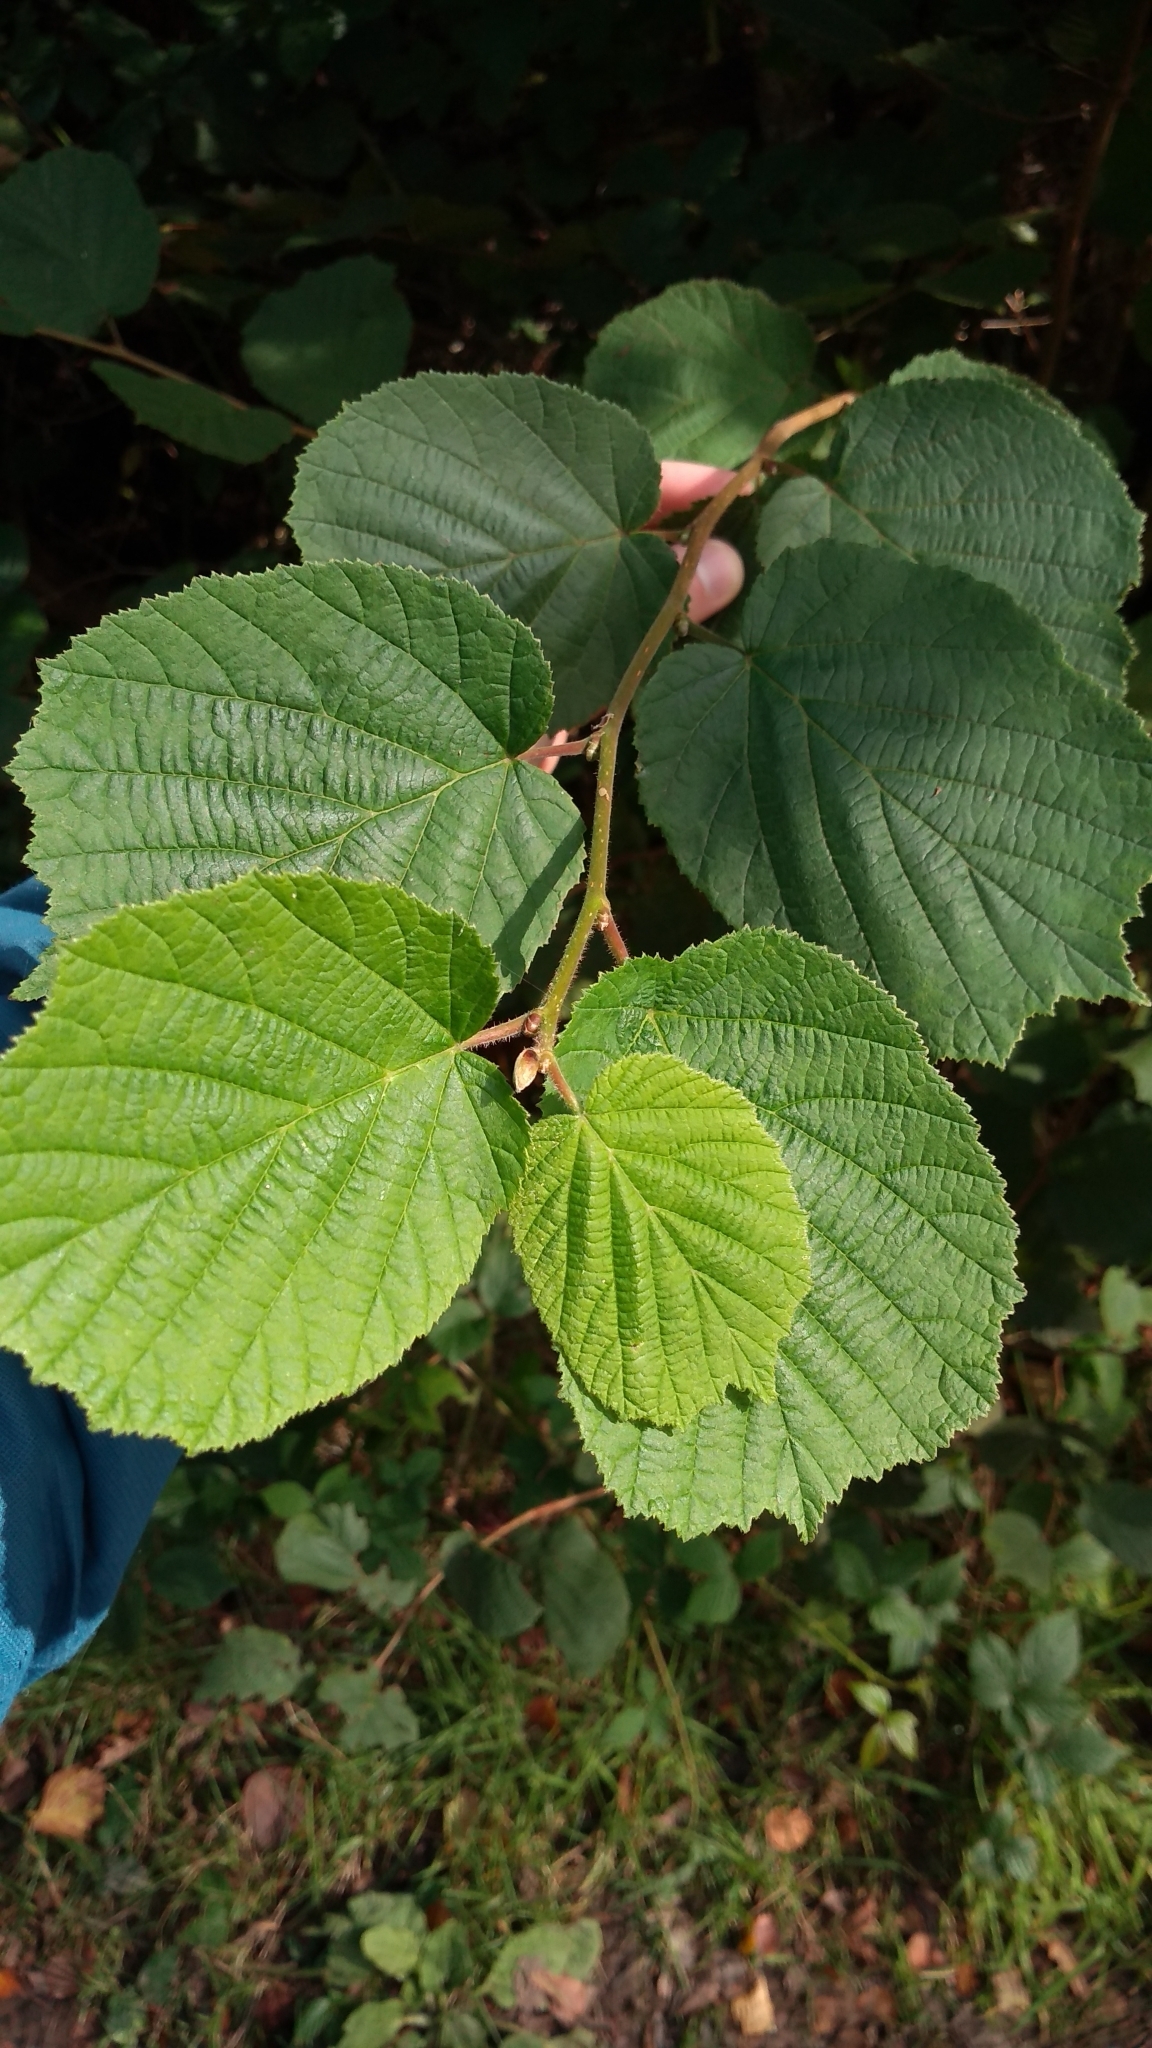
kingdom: Plantae
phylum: Tracheophyta
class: Magnoliopsida
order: Fagales
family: Betulaceae
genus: Corylus
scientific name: Corylus avellana
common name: European hazel
